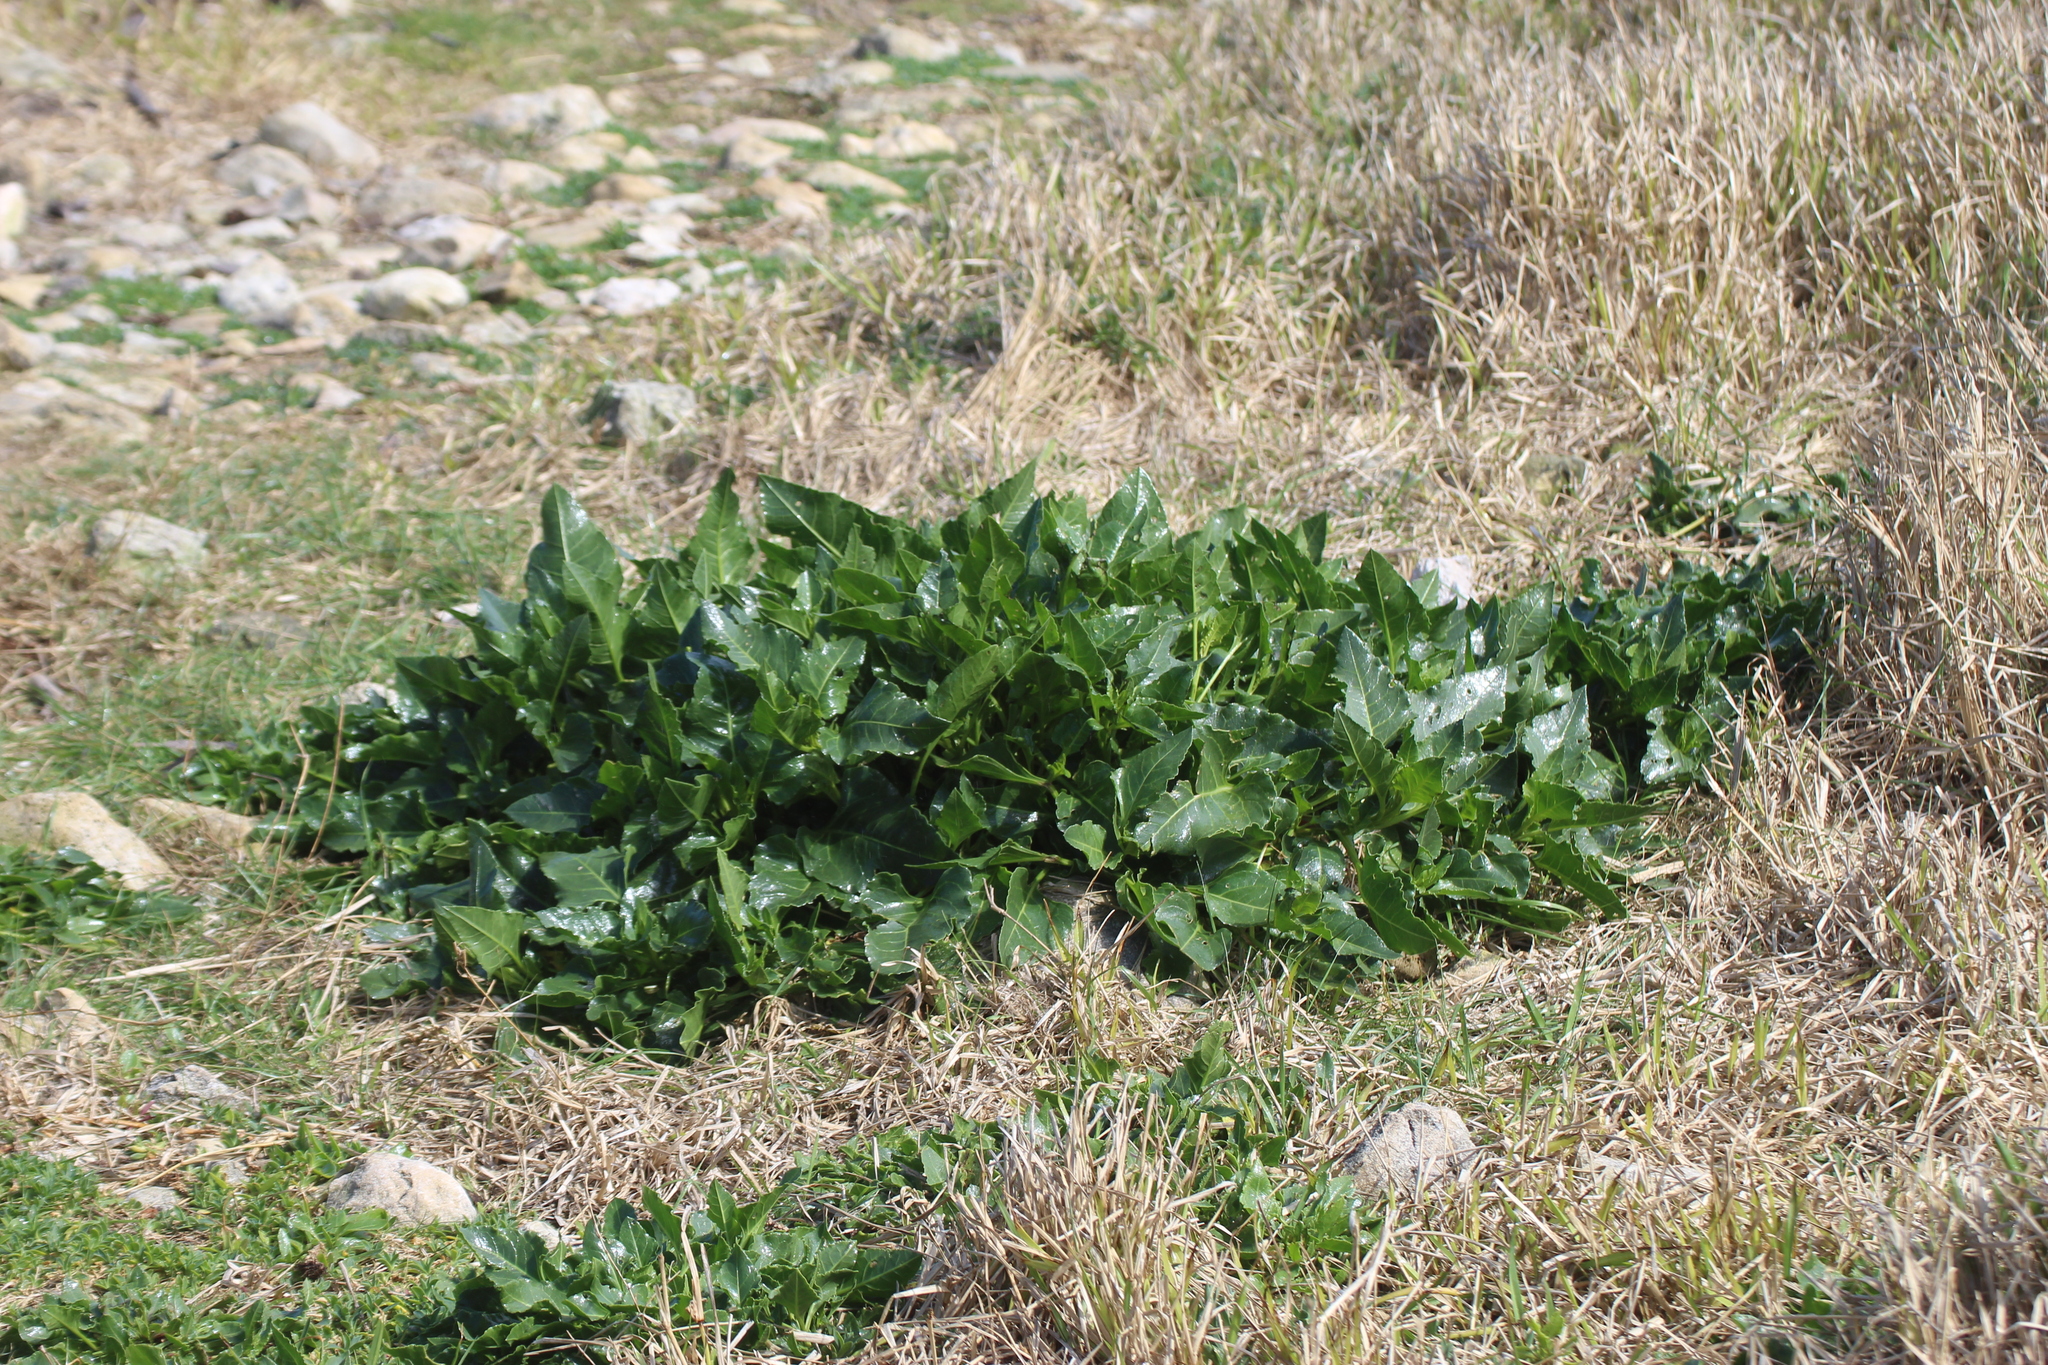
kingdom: Plantae
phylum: Tracheophyta
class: Magnoliopsida
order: Caryophyllales
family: Amaranthaceae
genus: Beta
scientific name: Beta vulgaris
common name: Beet
